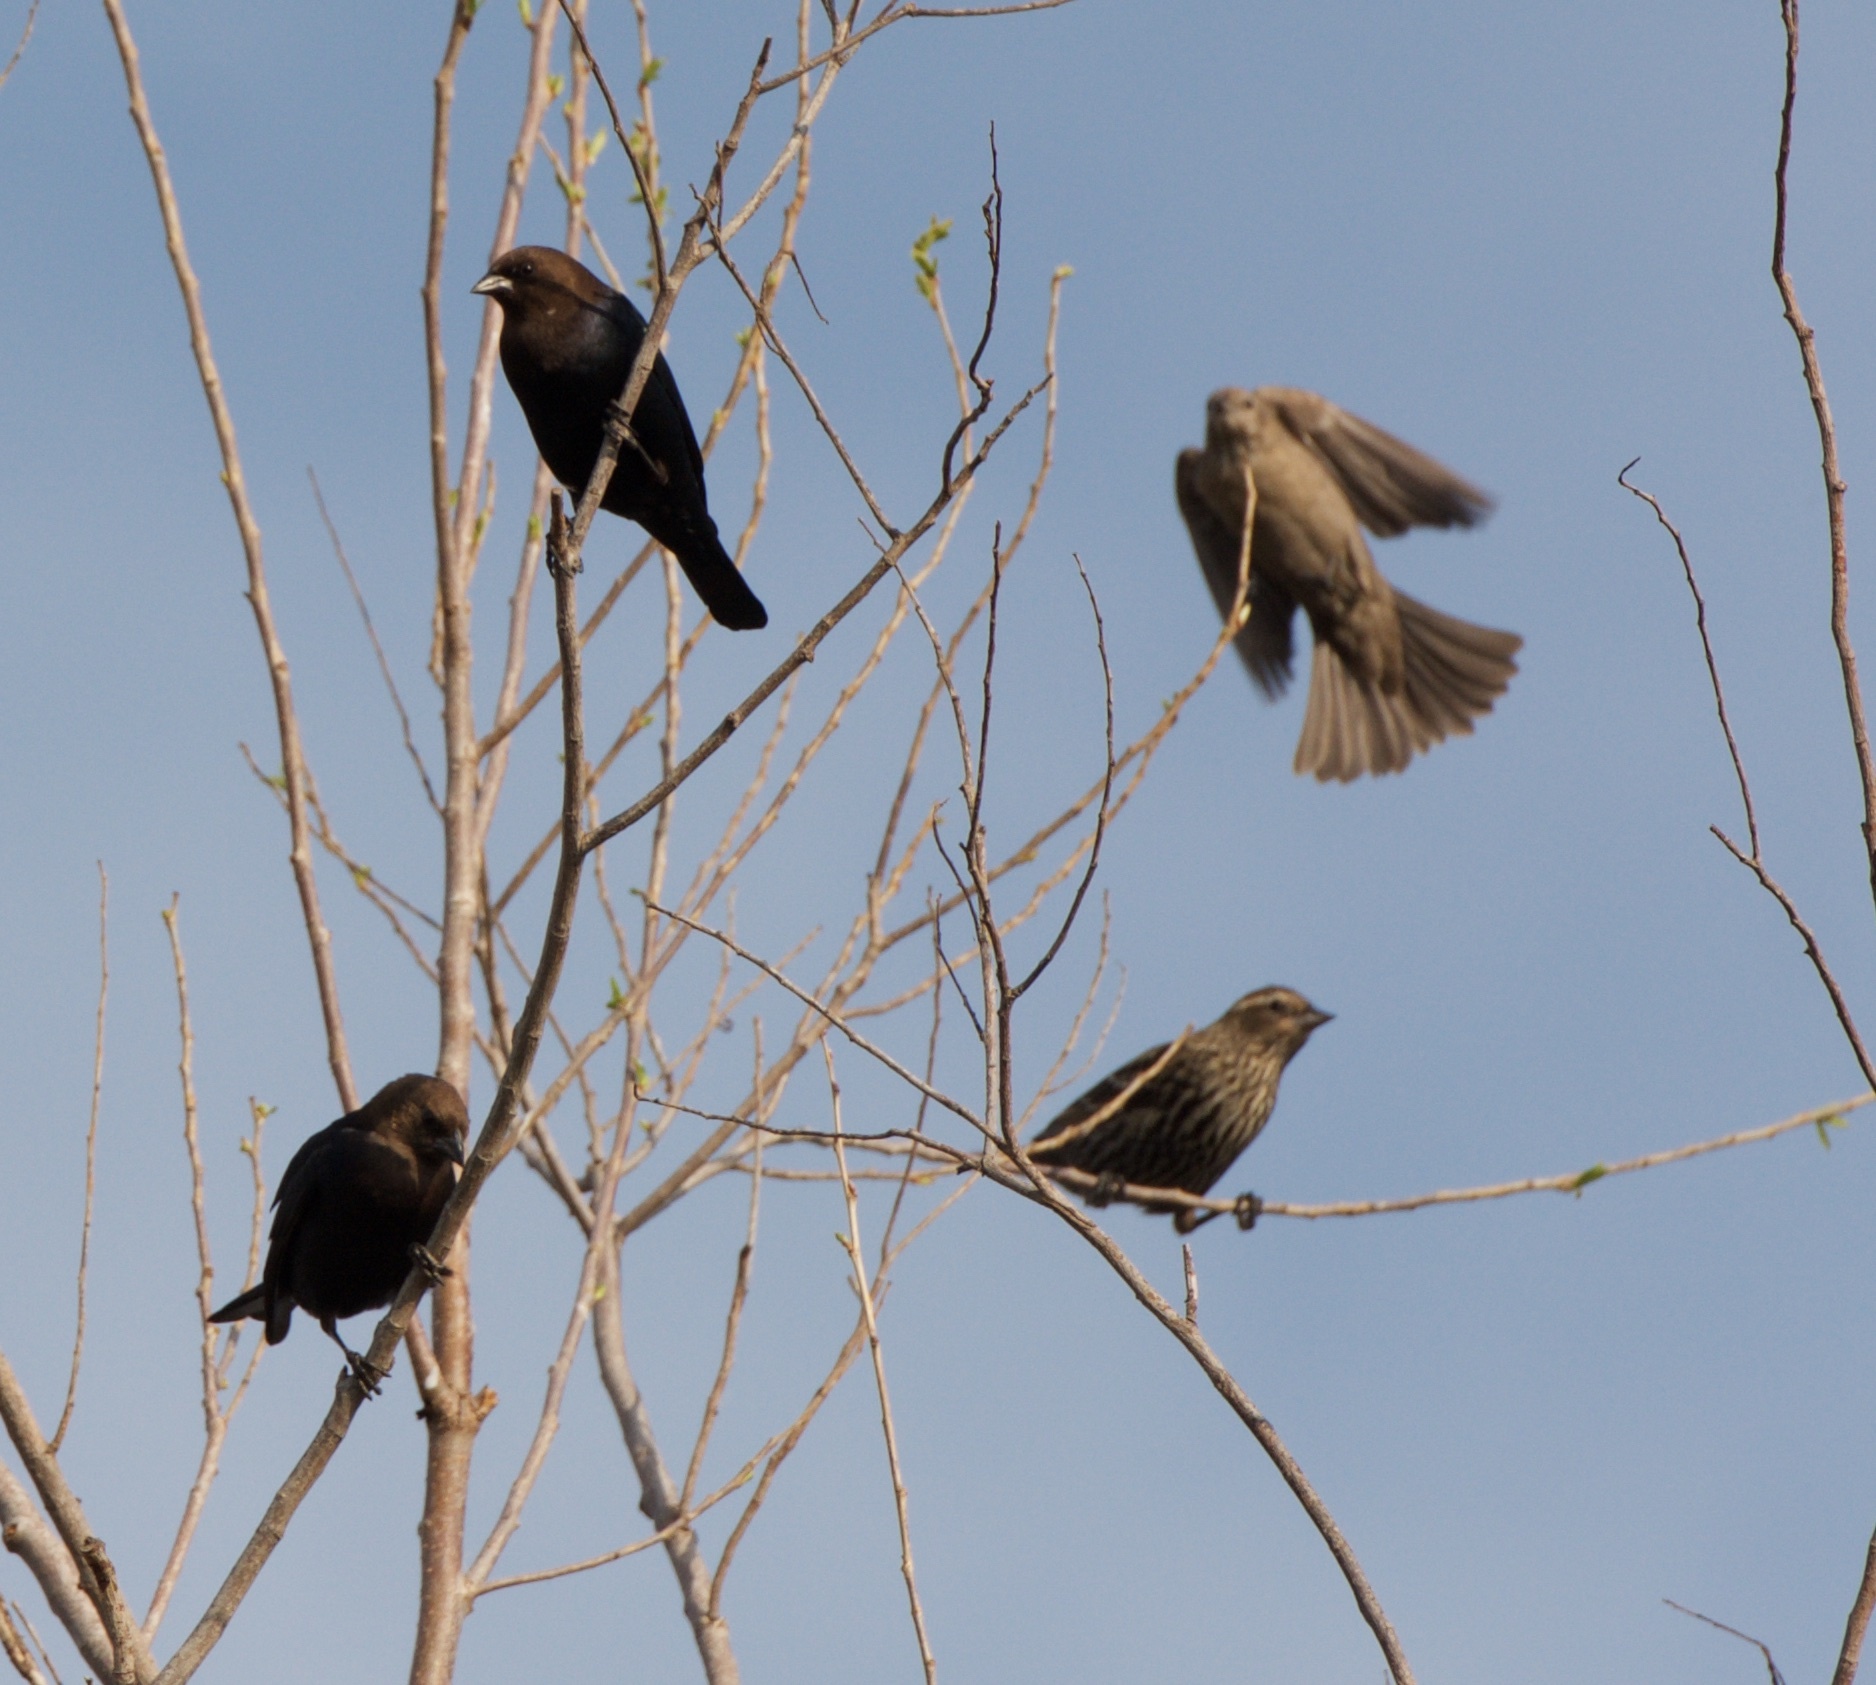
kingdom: Animalia
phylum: Chordata
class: Aves
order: Passeriformes
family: Icteridae
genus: Molothrus
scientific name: Molothrus ater
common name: Brown-headed cowbird
